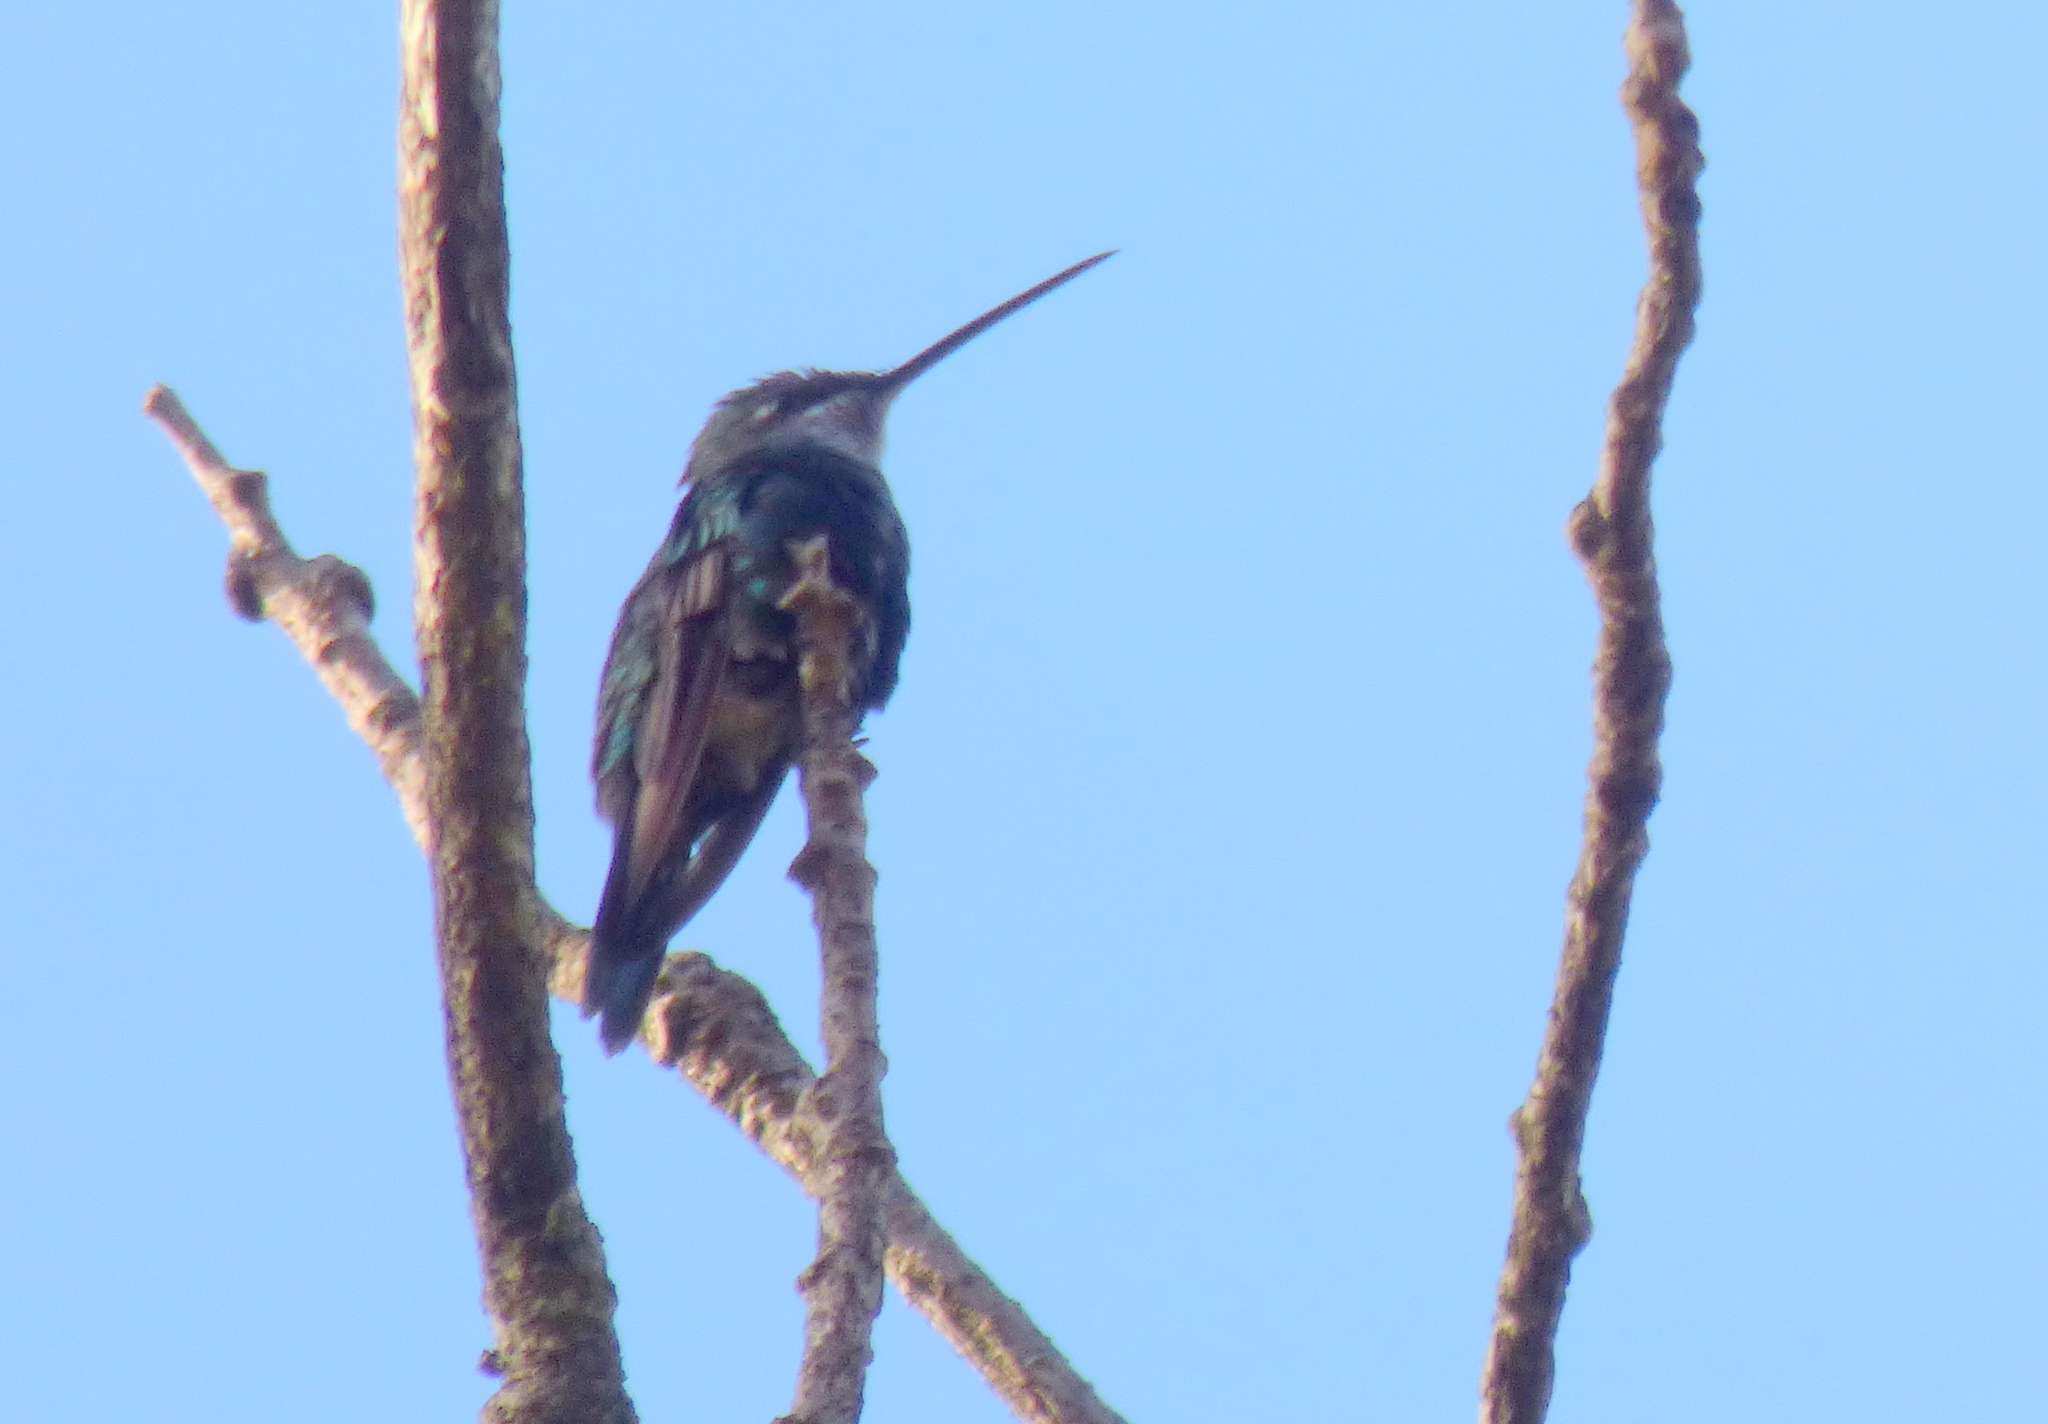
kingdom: Animalia
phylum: Chordata
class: Aves
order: Apodiformes
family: Trochilidae
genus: Heliomaster
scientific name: Heliomaster furcifer
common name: Blue-tufted starthroat
